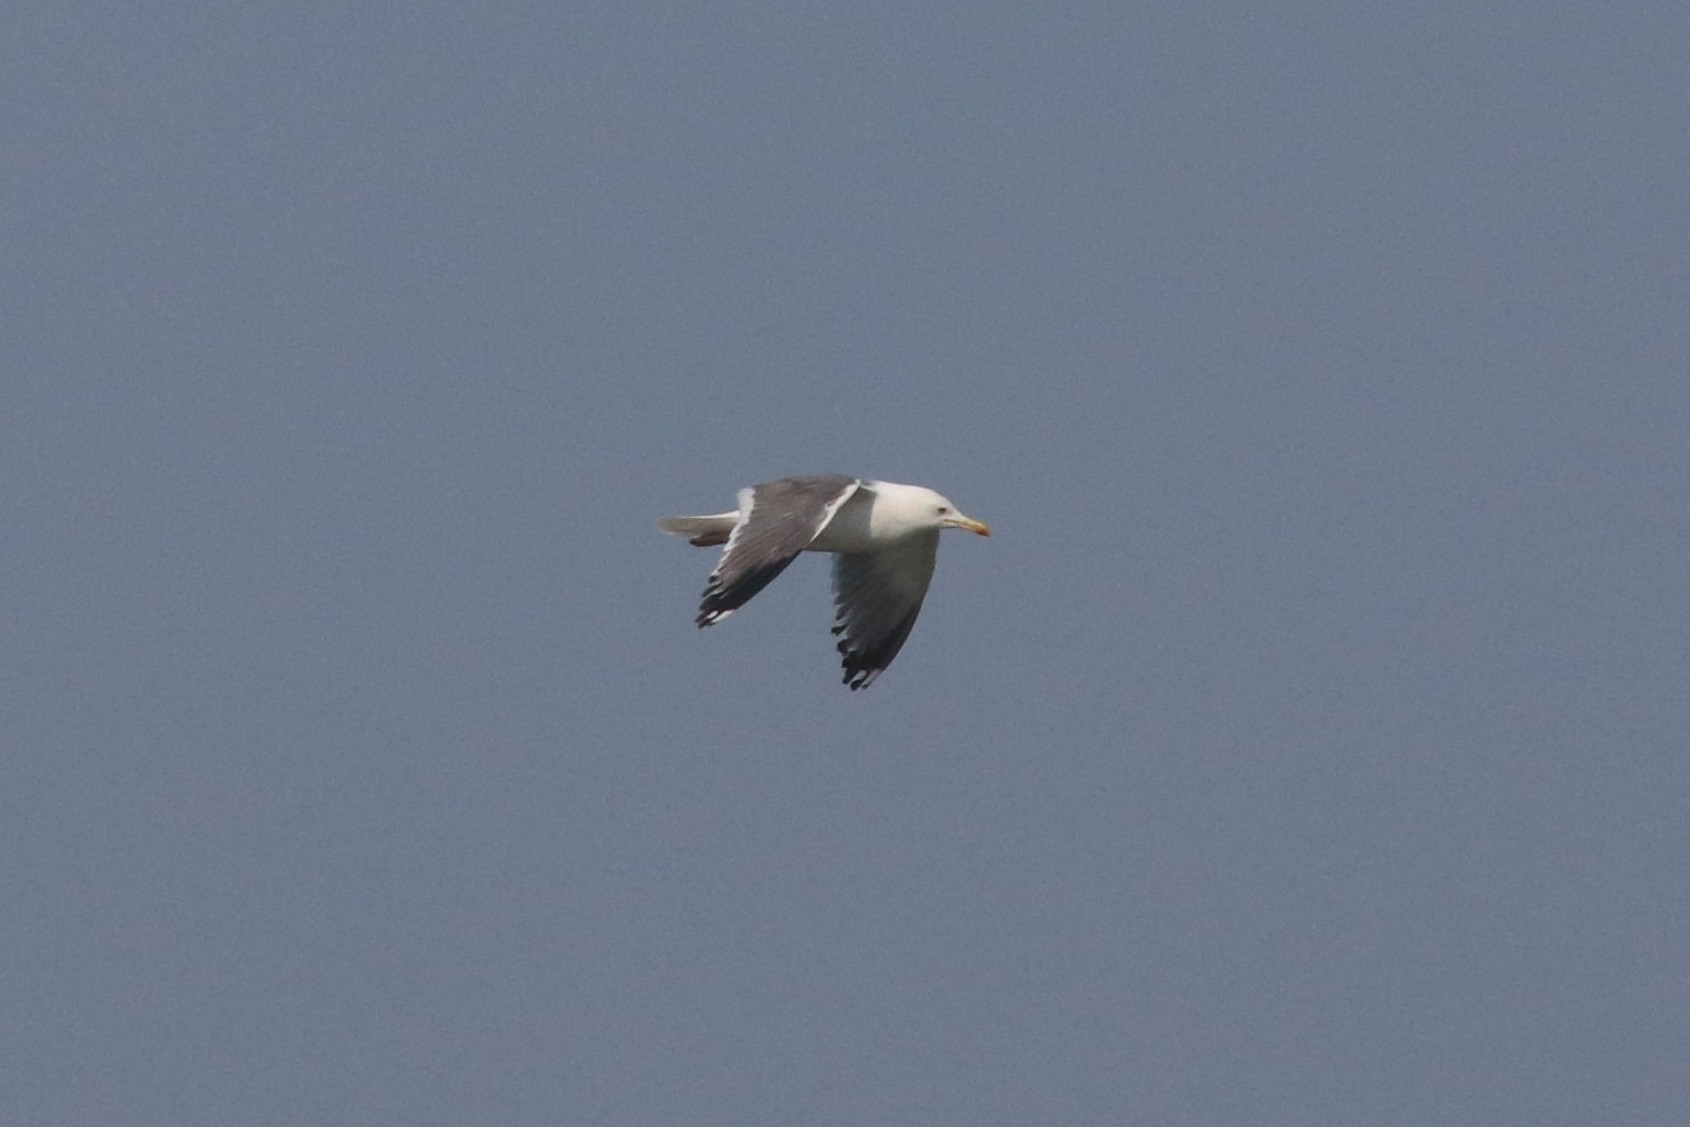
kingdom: Animalia
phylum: Chordata
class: Aves
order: Charadriiformes
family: Laridae
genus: Larus
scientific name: Larus fuscus
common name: Lesser black-backed gull
